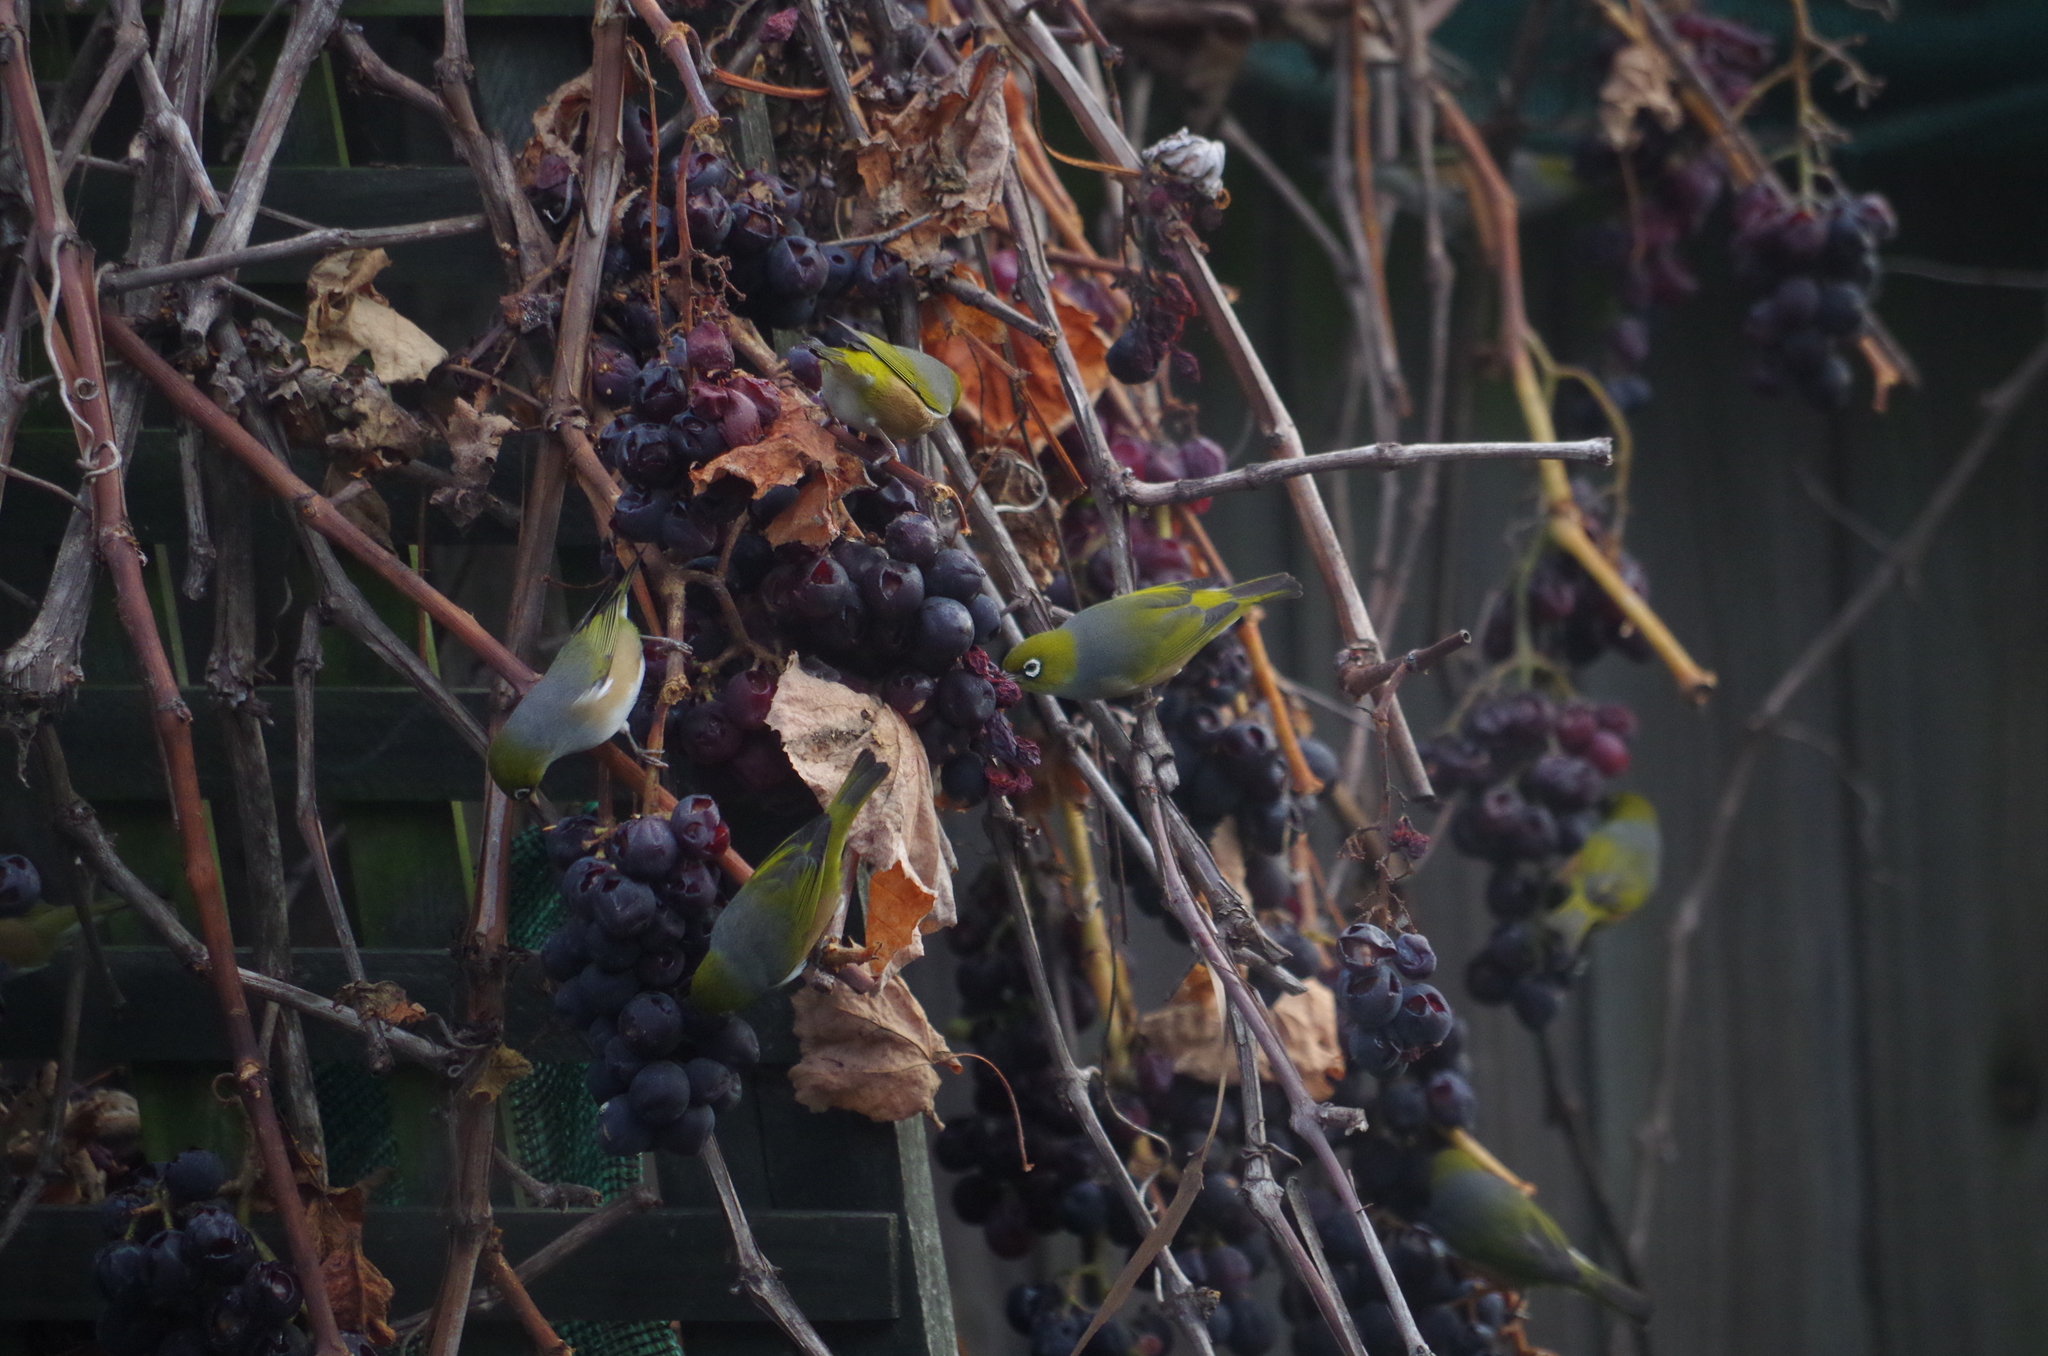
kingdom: Animalia
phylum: Chordata
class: Aves
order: Passeriformes
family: Zosteropidae
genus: Zosterops
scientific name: Zosterops lateralis
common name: Silvereye
